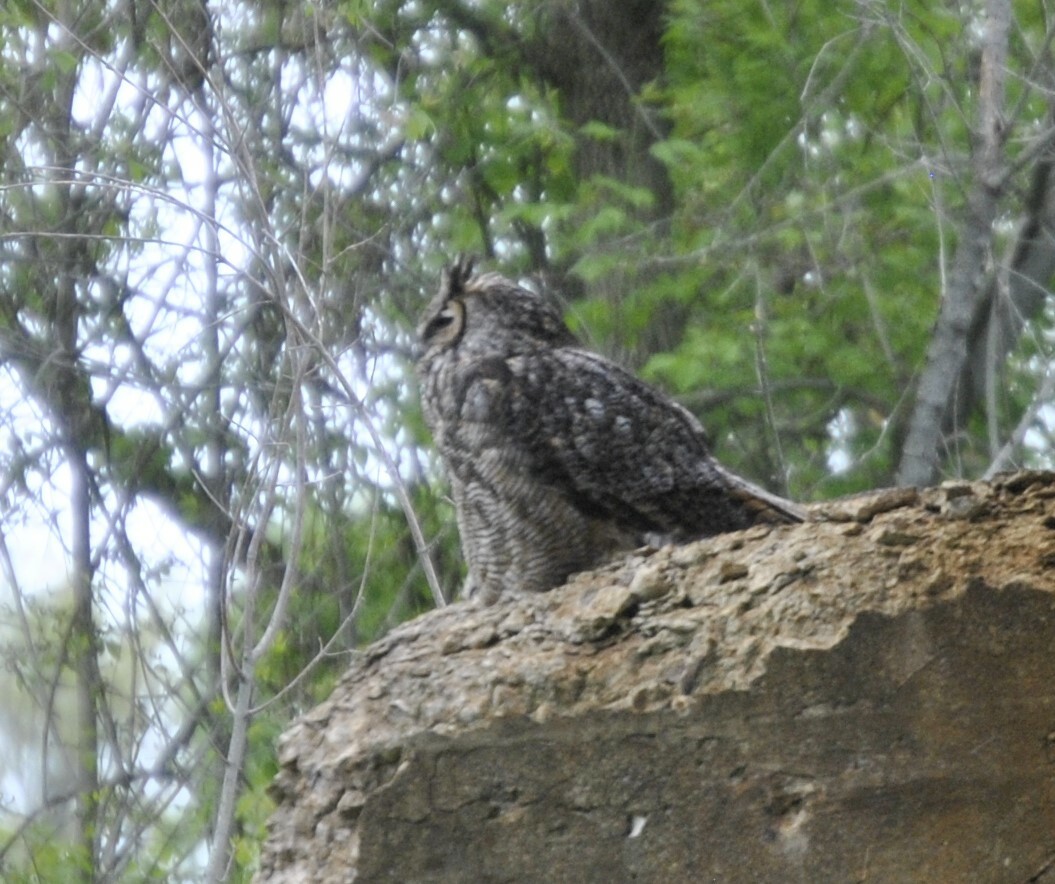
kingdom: Animalia
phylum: Chordata
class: Aves
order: Strigiformes
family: Strigidae
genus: Bubo
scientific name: Bubo virginianus
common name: Great horned owl
